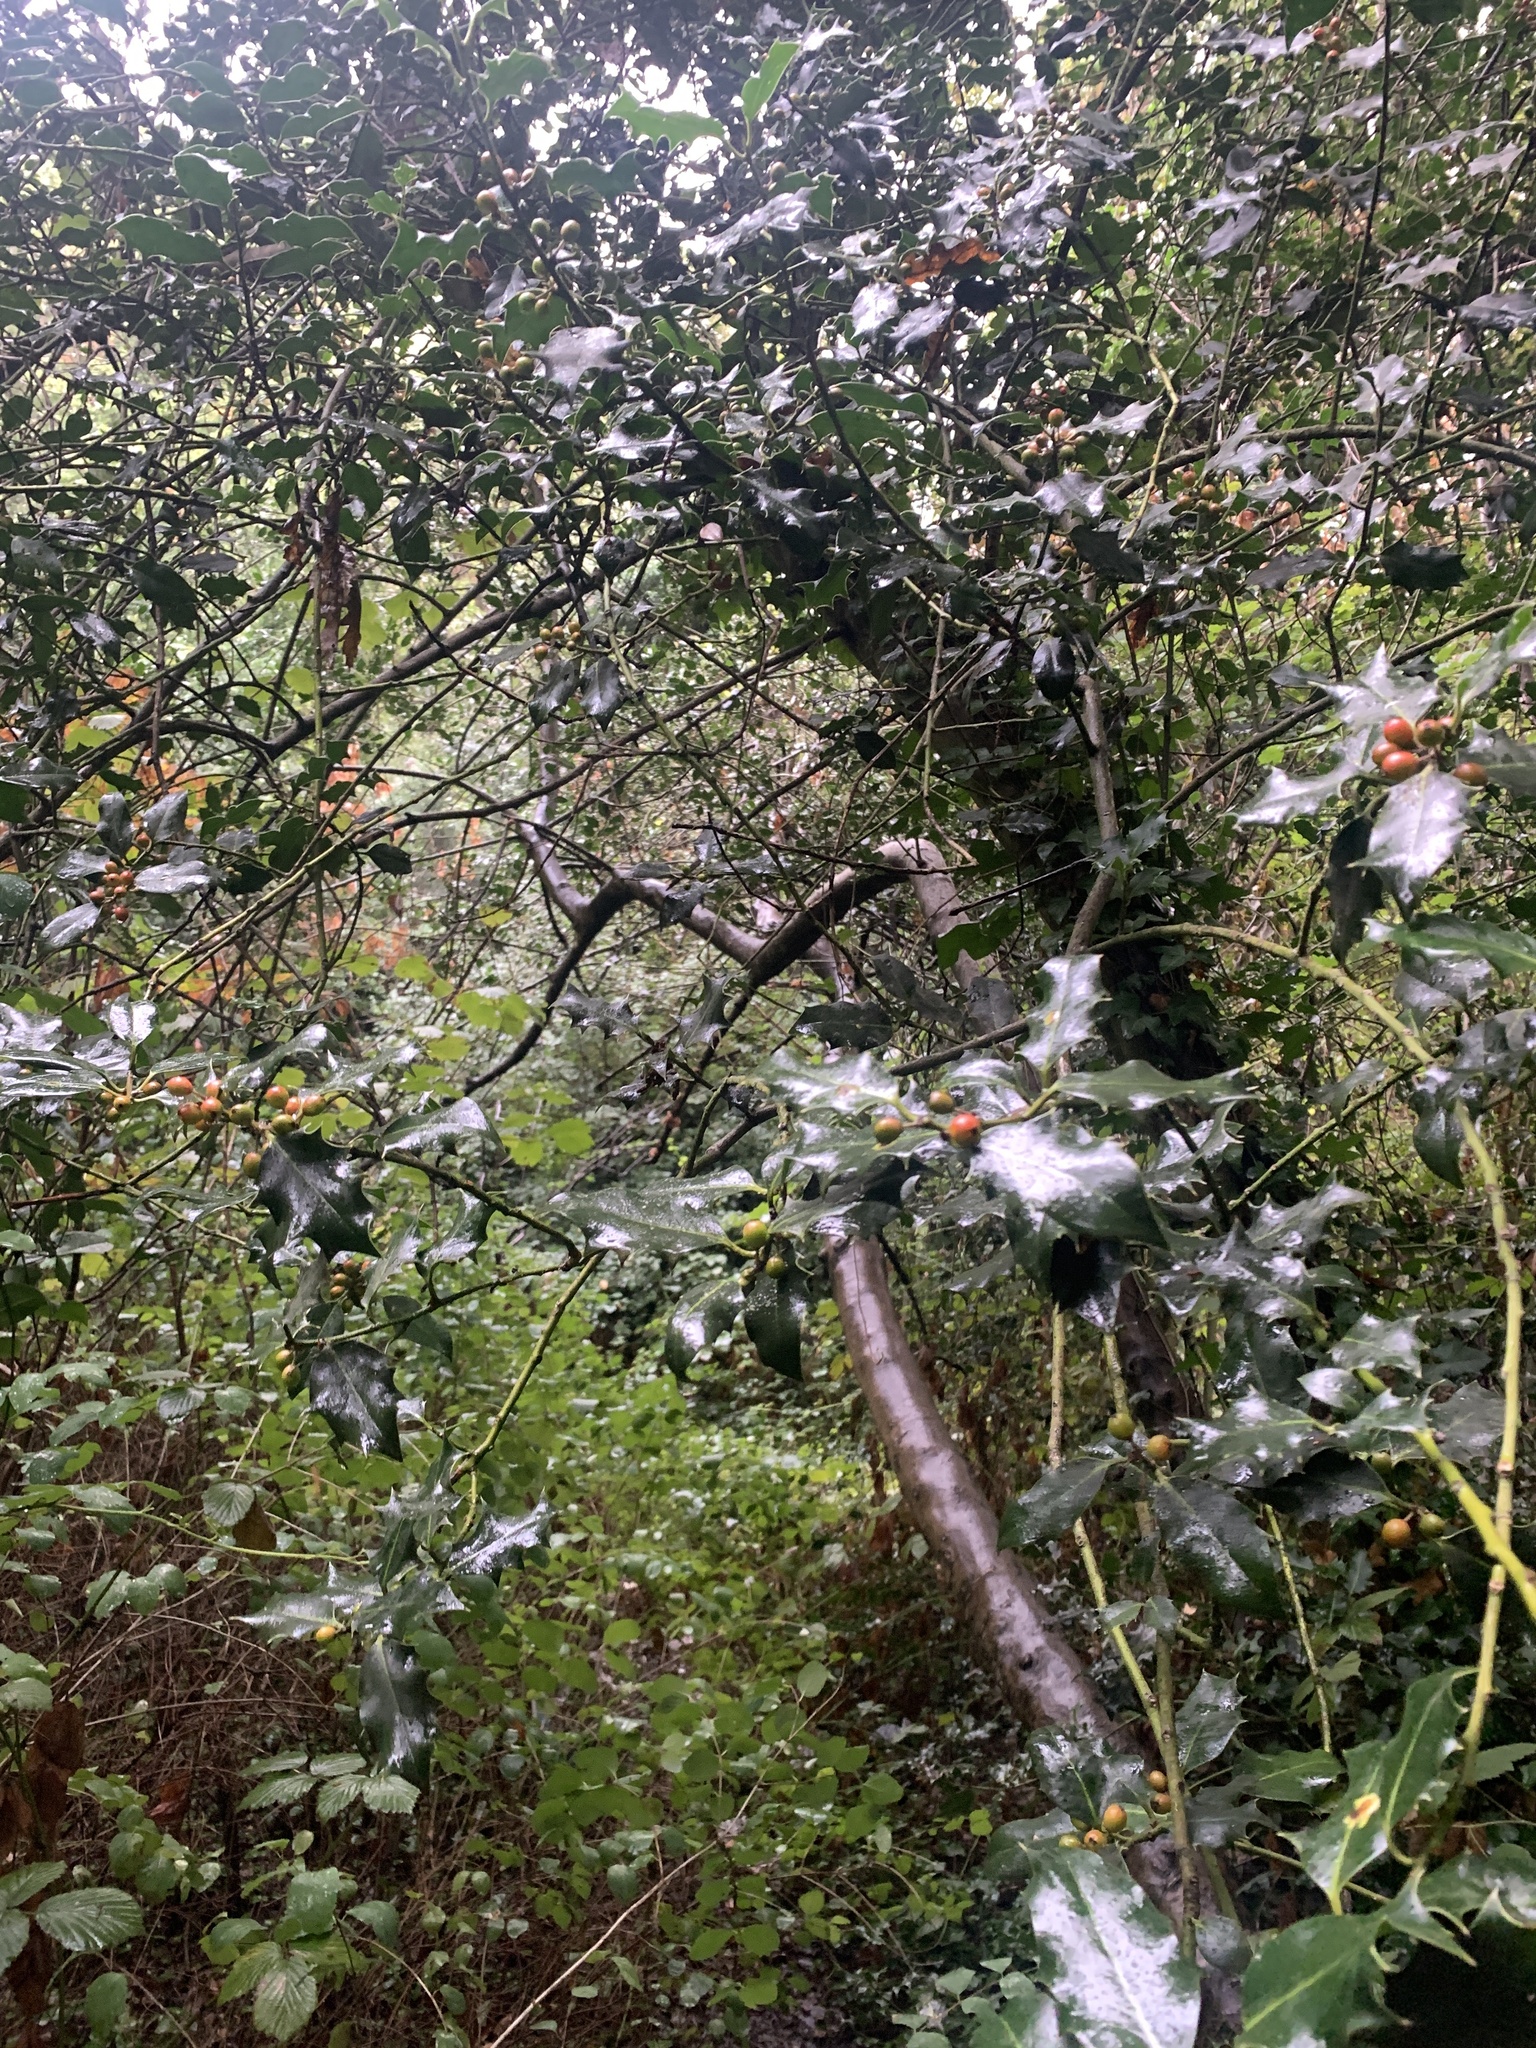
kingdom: Plantae
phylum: Tracheophyta
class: Magnoliopsida
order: Aquifoliales
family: Aquifoliaceae
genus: Ilex
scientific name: Ilex aquifolium
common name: English holly
